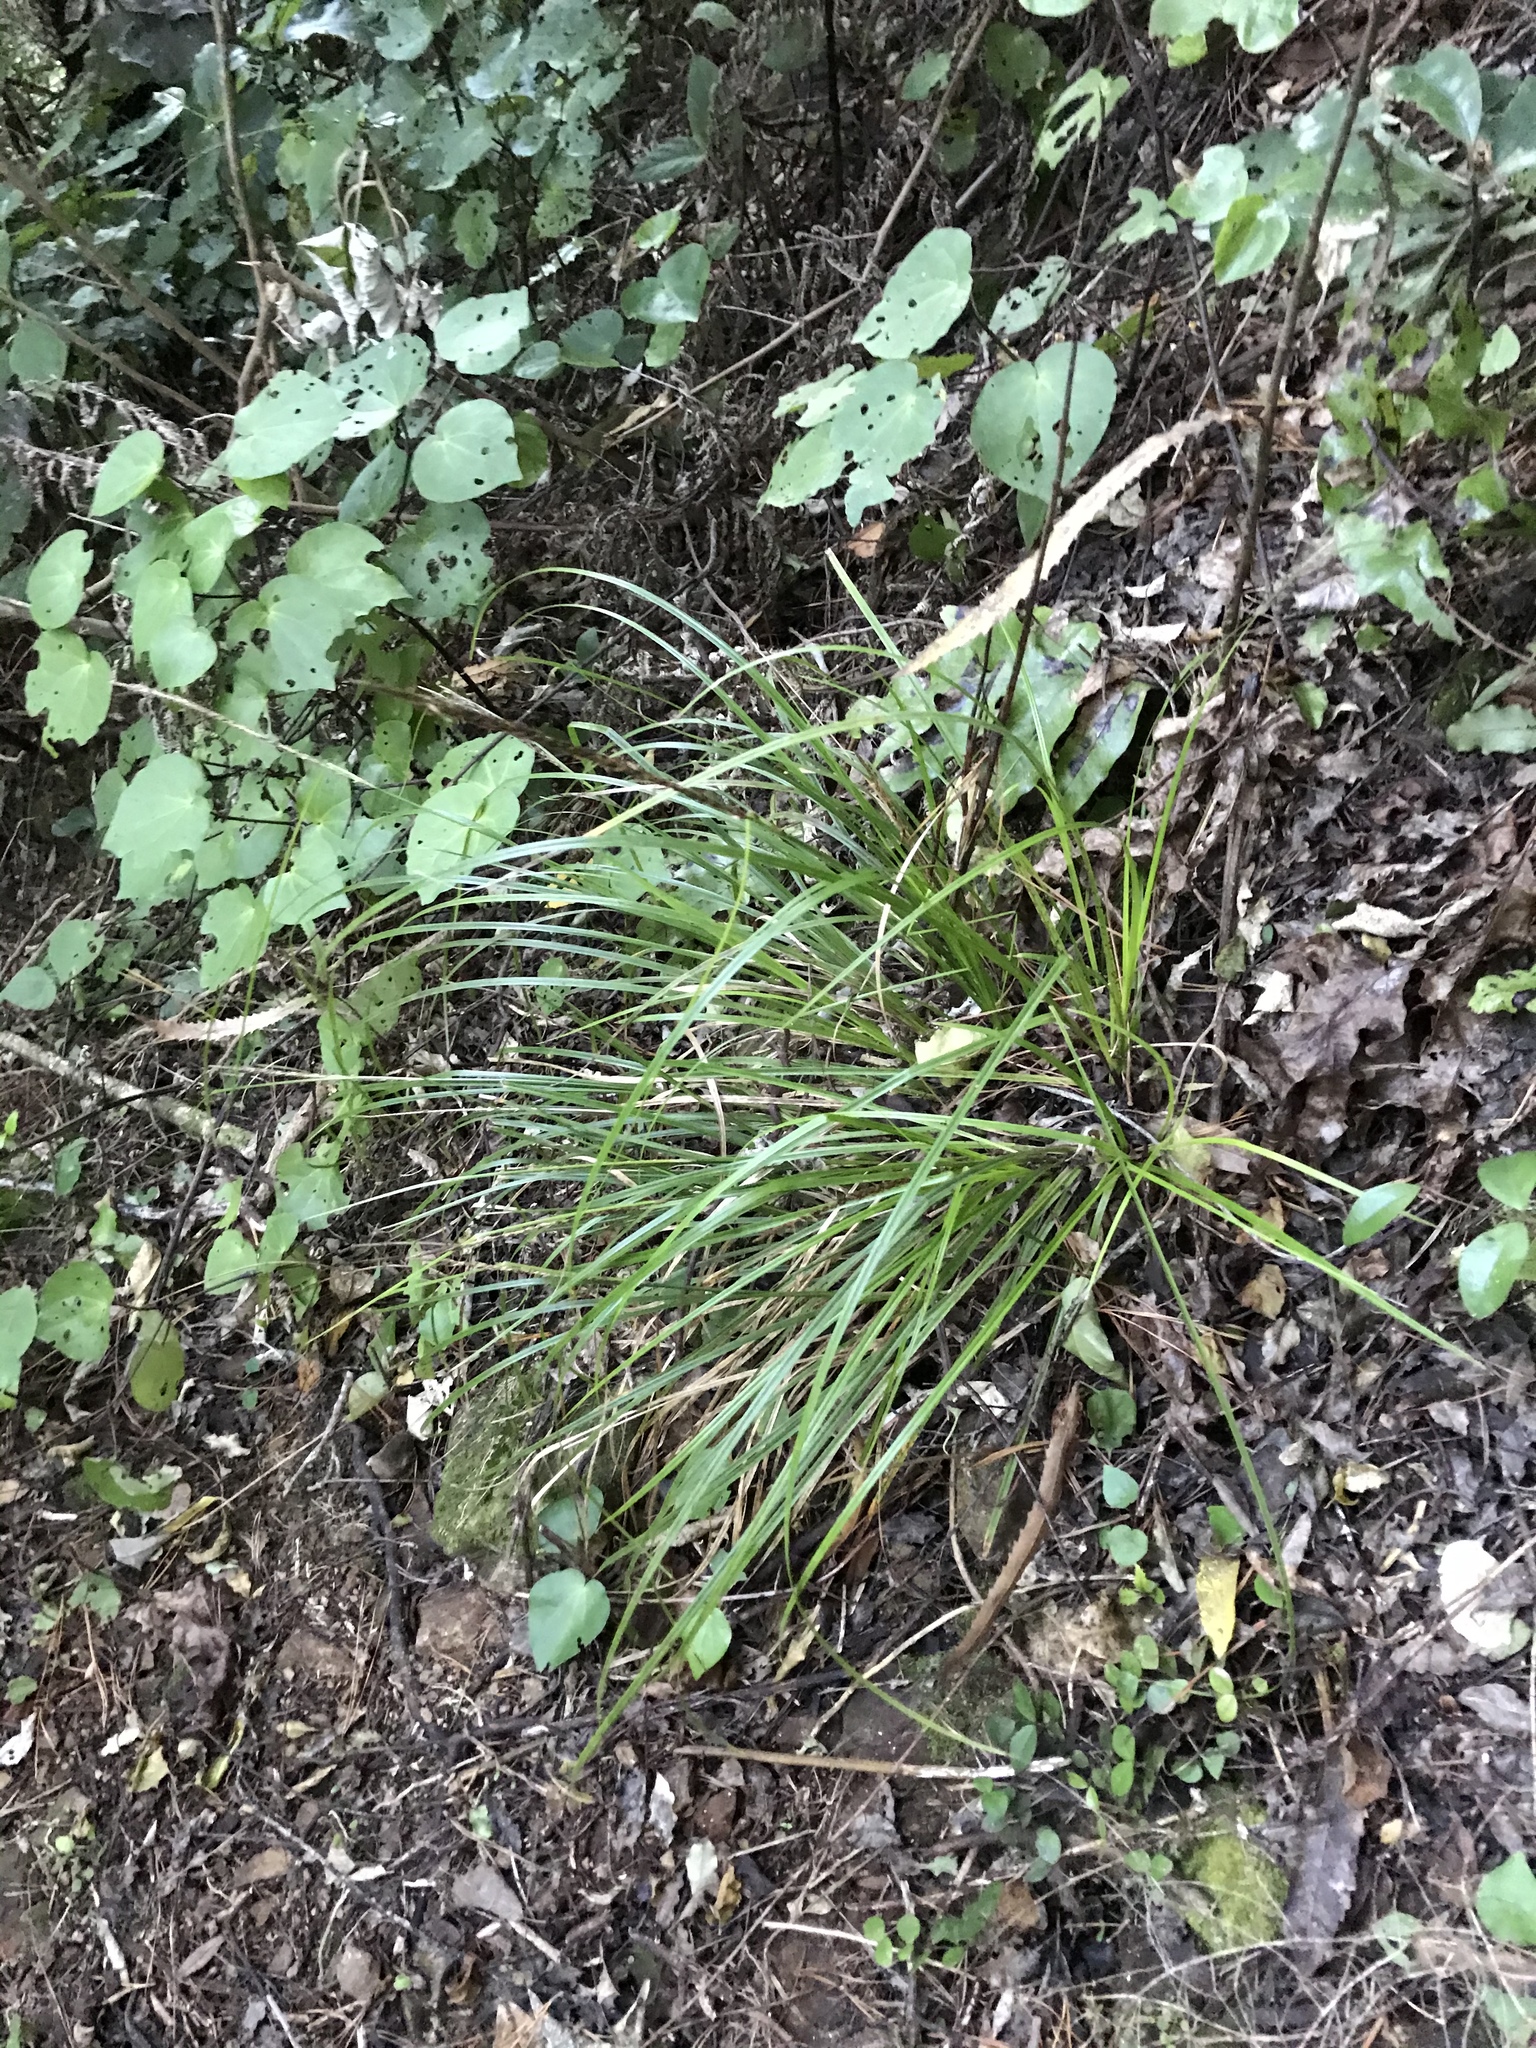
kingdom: Plantae
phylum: Tracheophyta
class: Liliopsida
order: Poales
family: Cyperaceae
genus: Carex
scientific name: Carex uncinata
